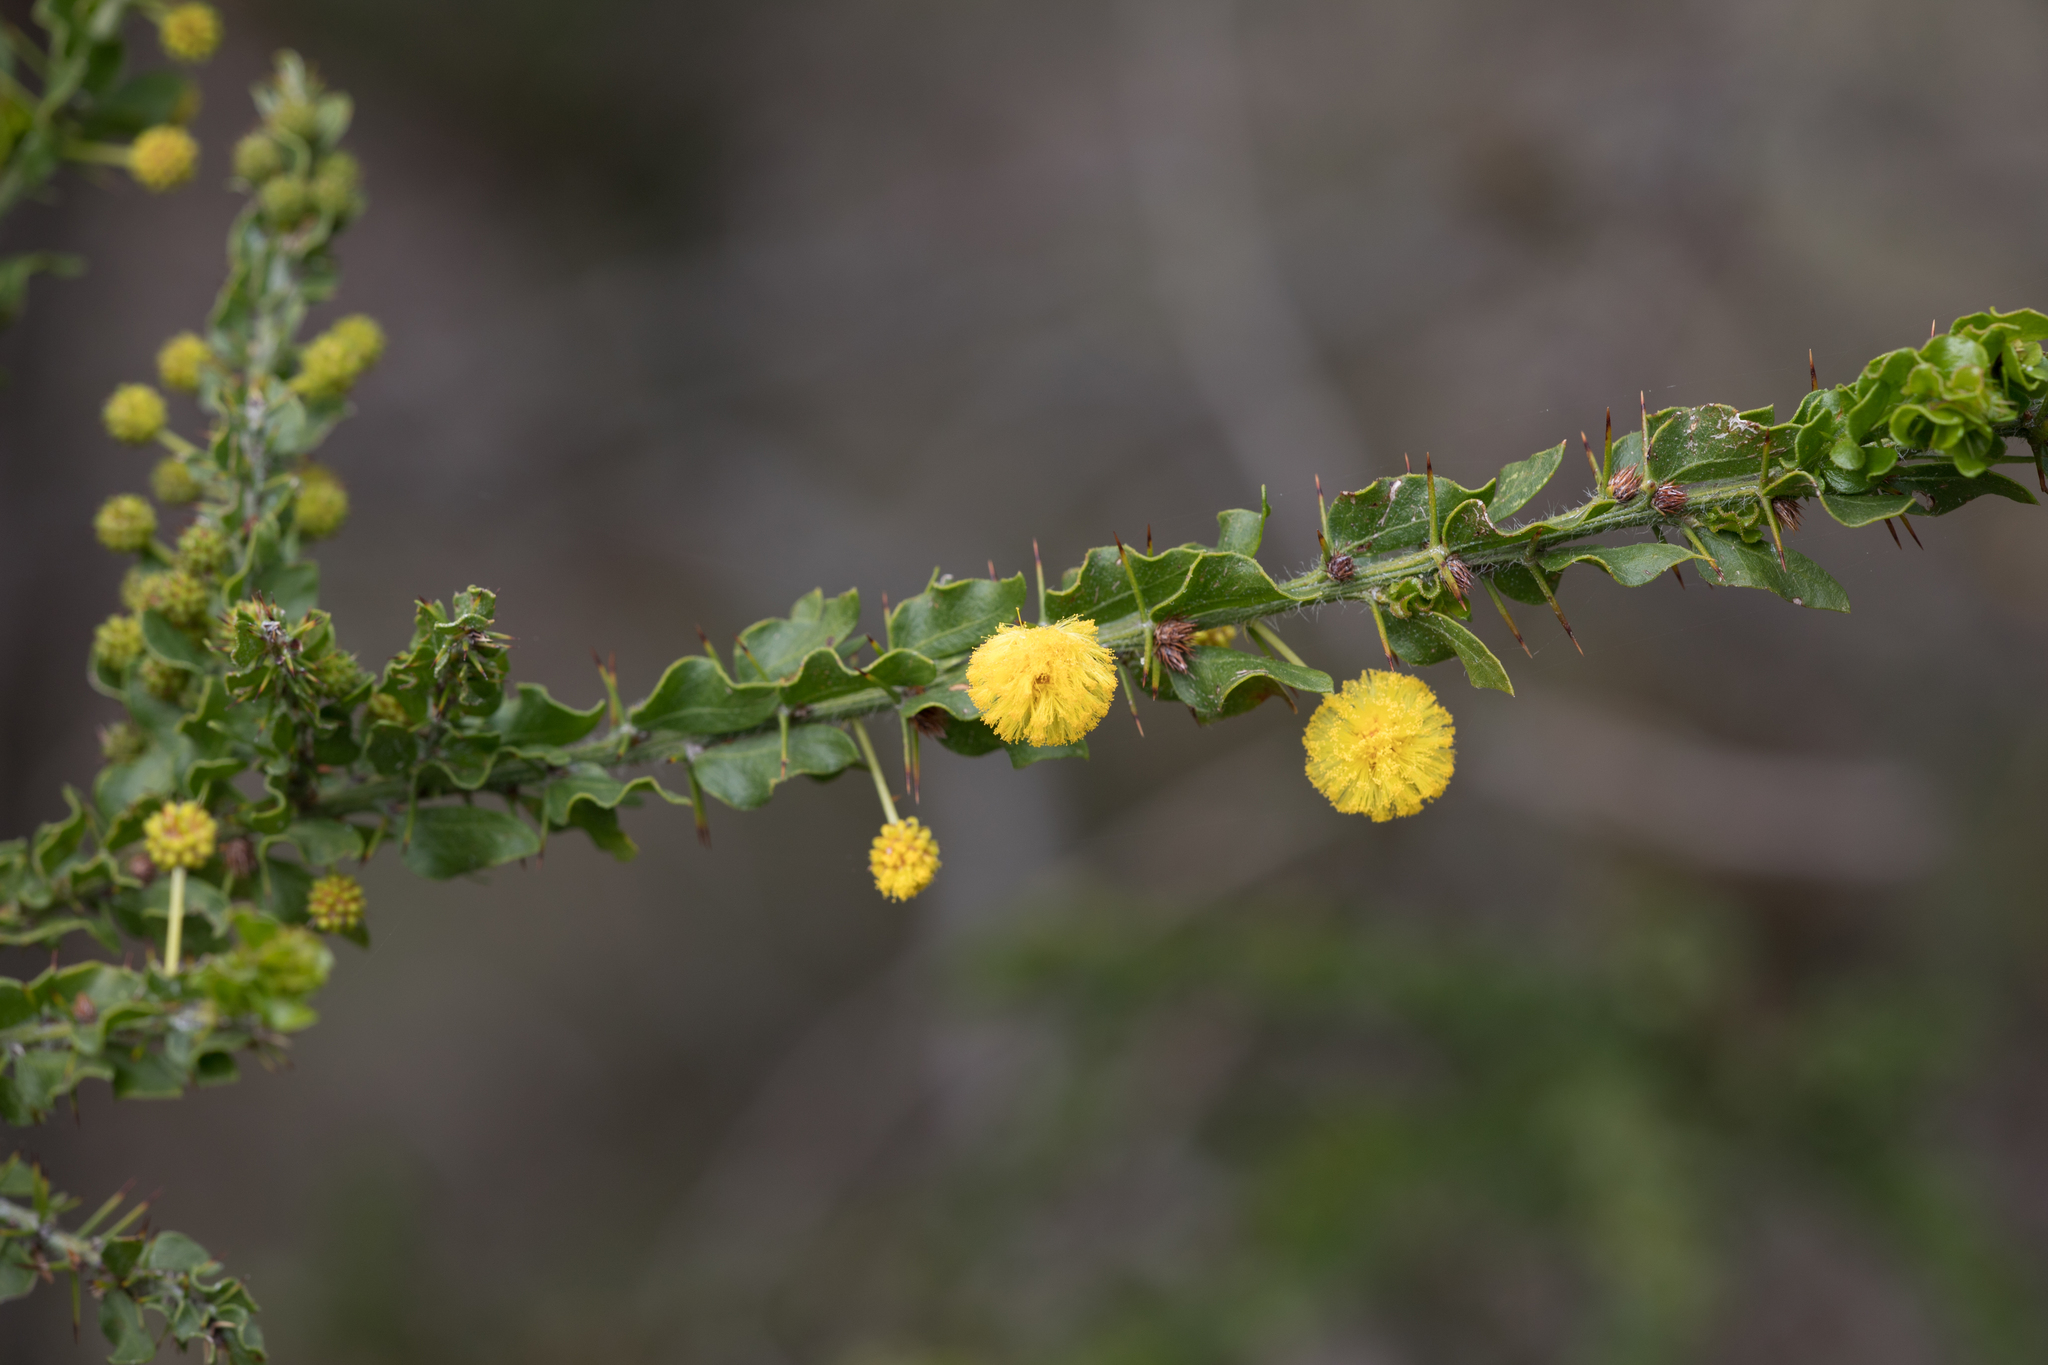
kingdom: Plantae
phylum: Tracheophyta
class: Magnoliopsida
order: Fabales
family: Fabaceae
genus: Acacia
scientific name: Acacia paradoxa
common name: Paradox acacia
